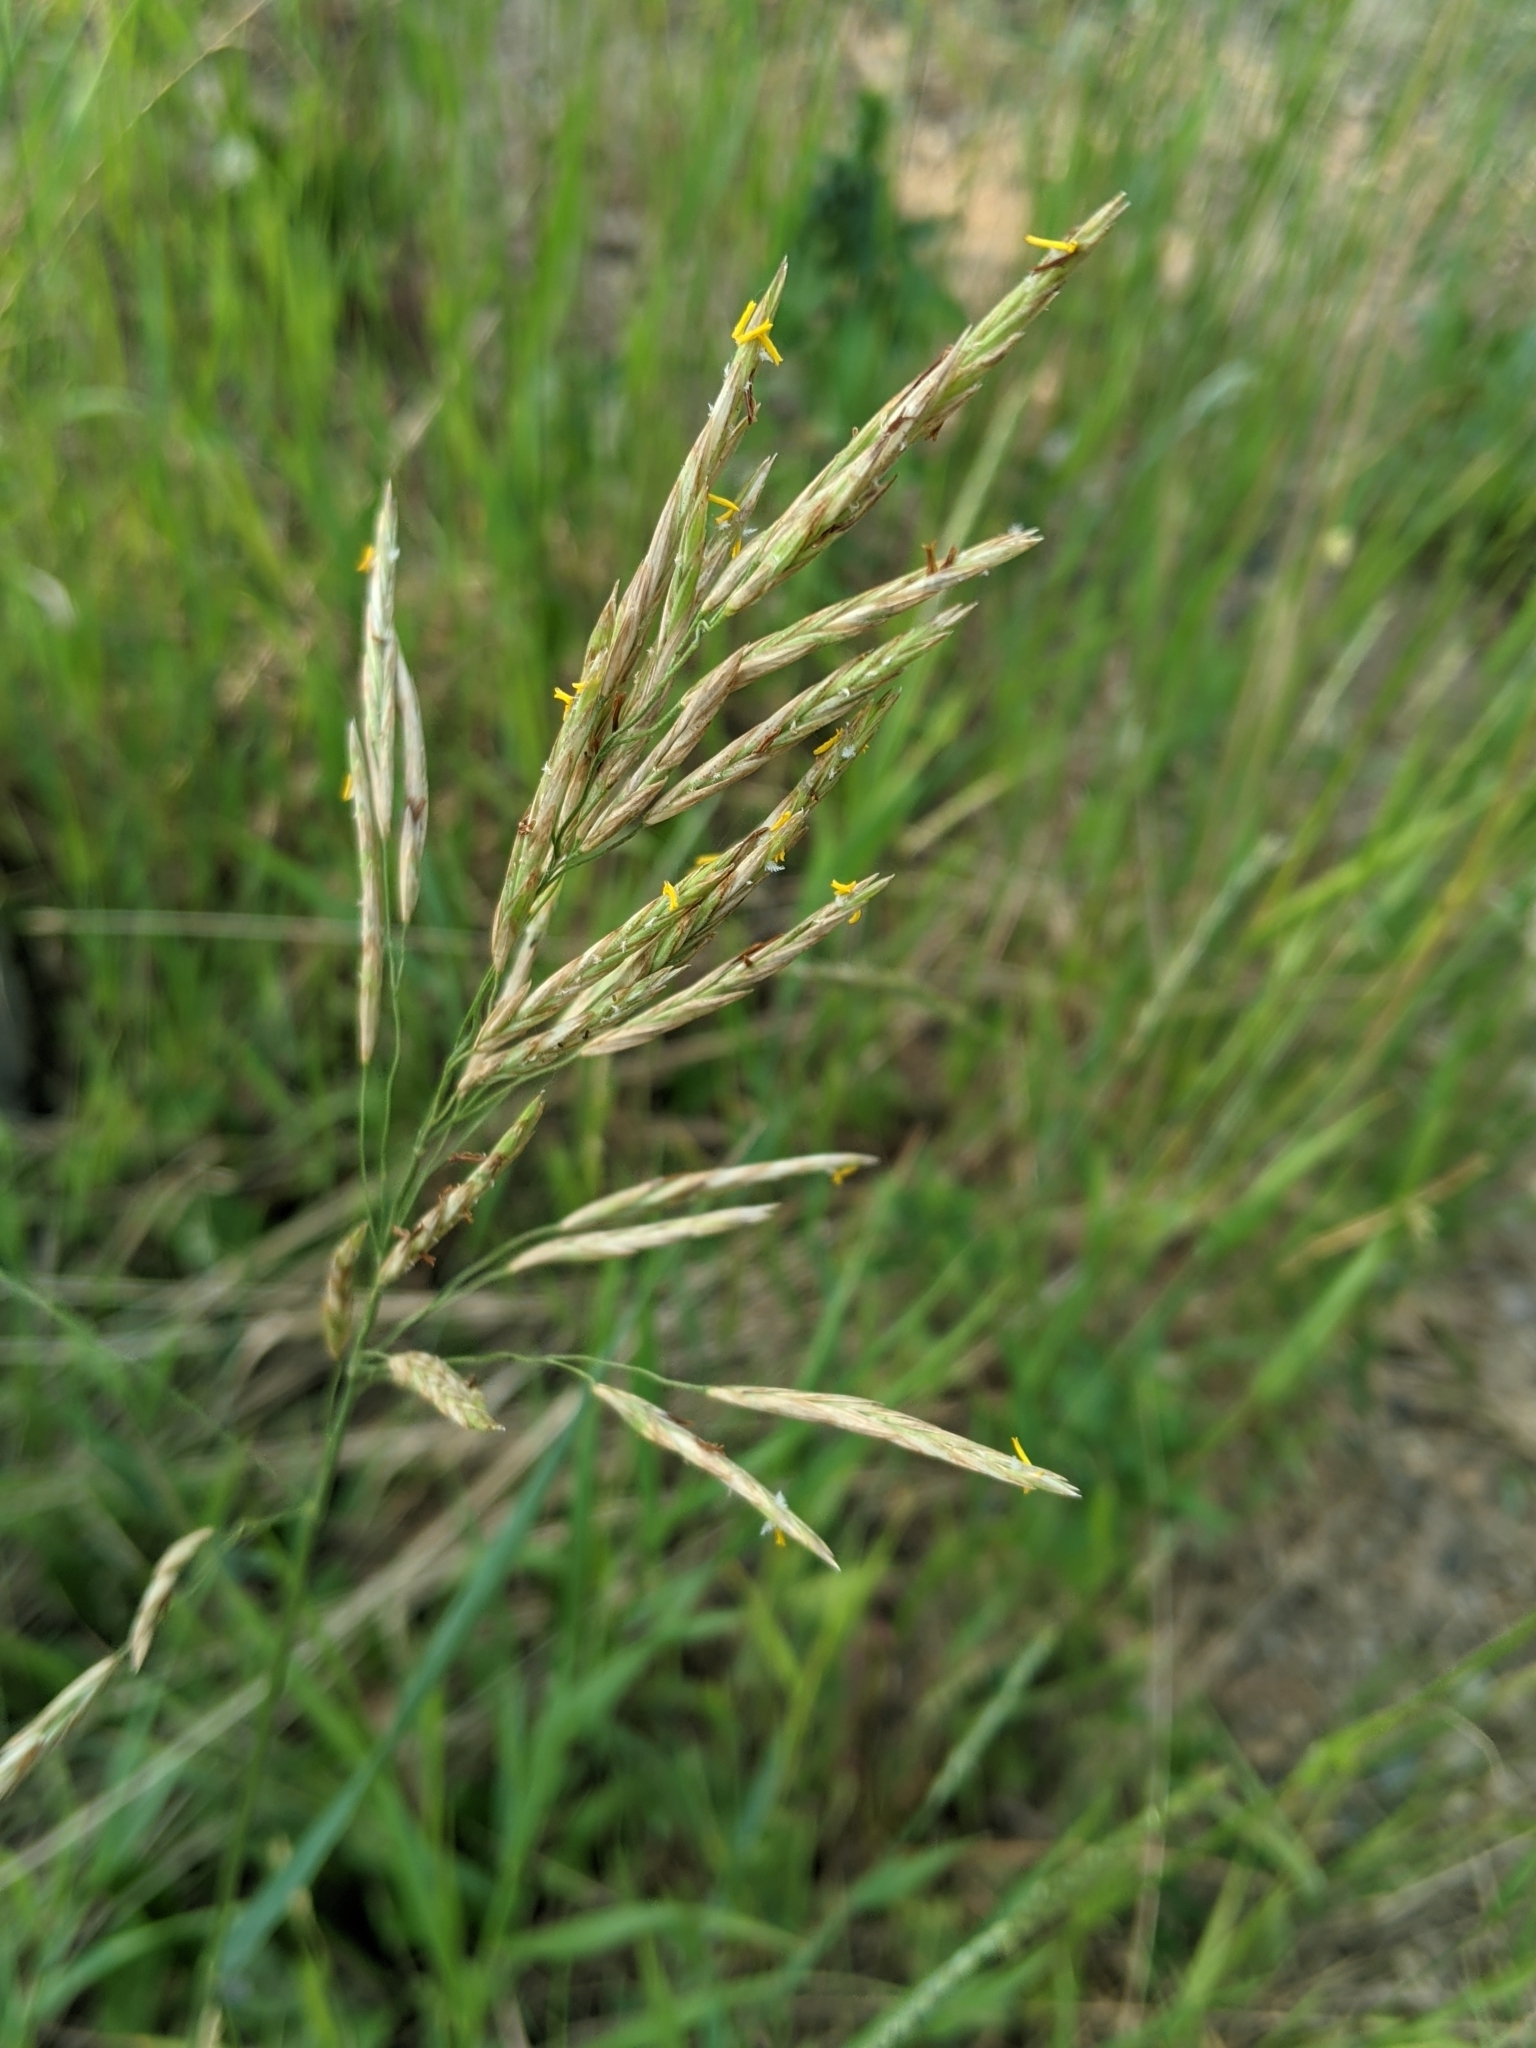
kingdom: Plantae
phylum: Tracheophyta
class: Liliopsida
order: Poales
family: Poaceae
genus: Bromus
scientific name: Bromus inermis
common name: Smooth brome
